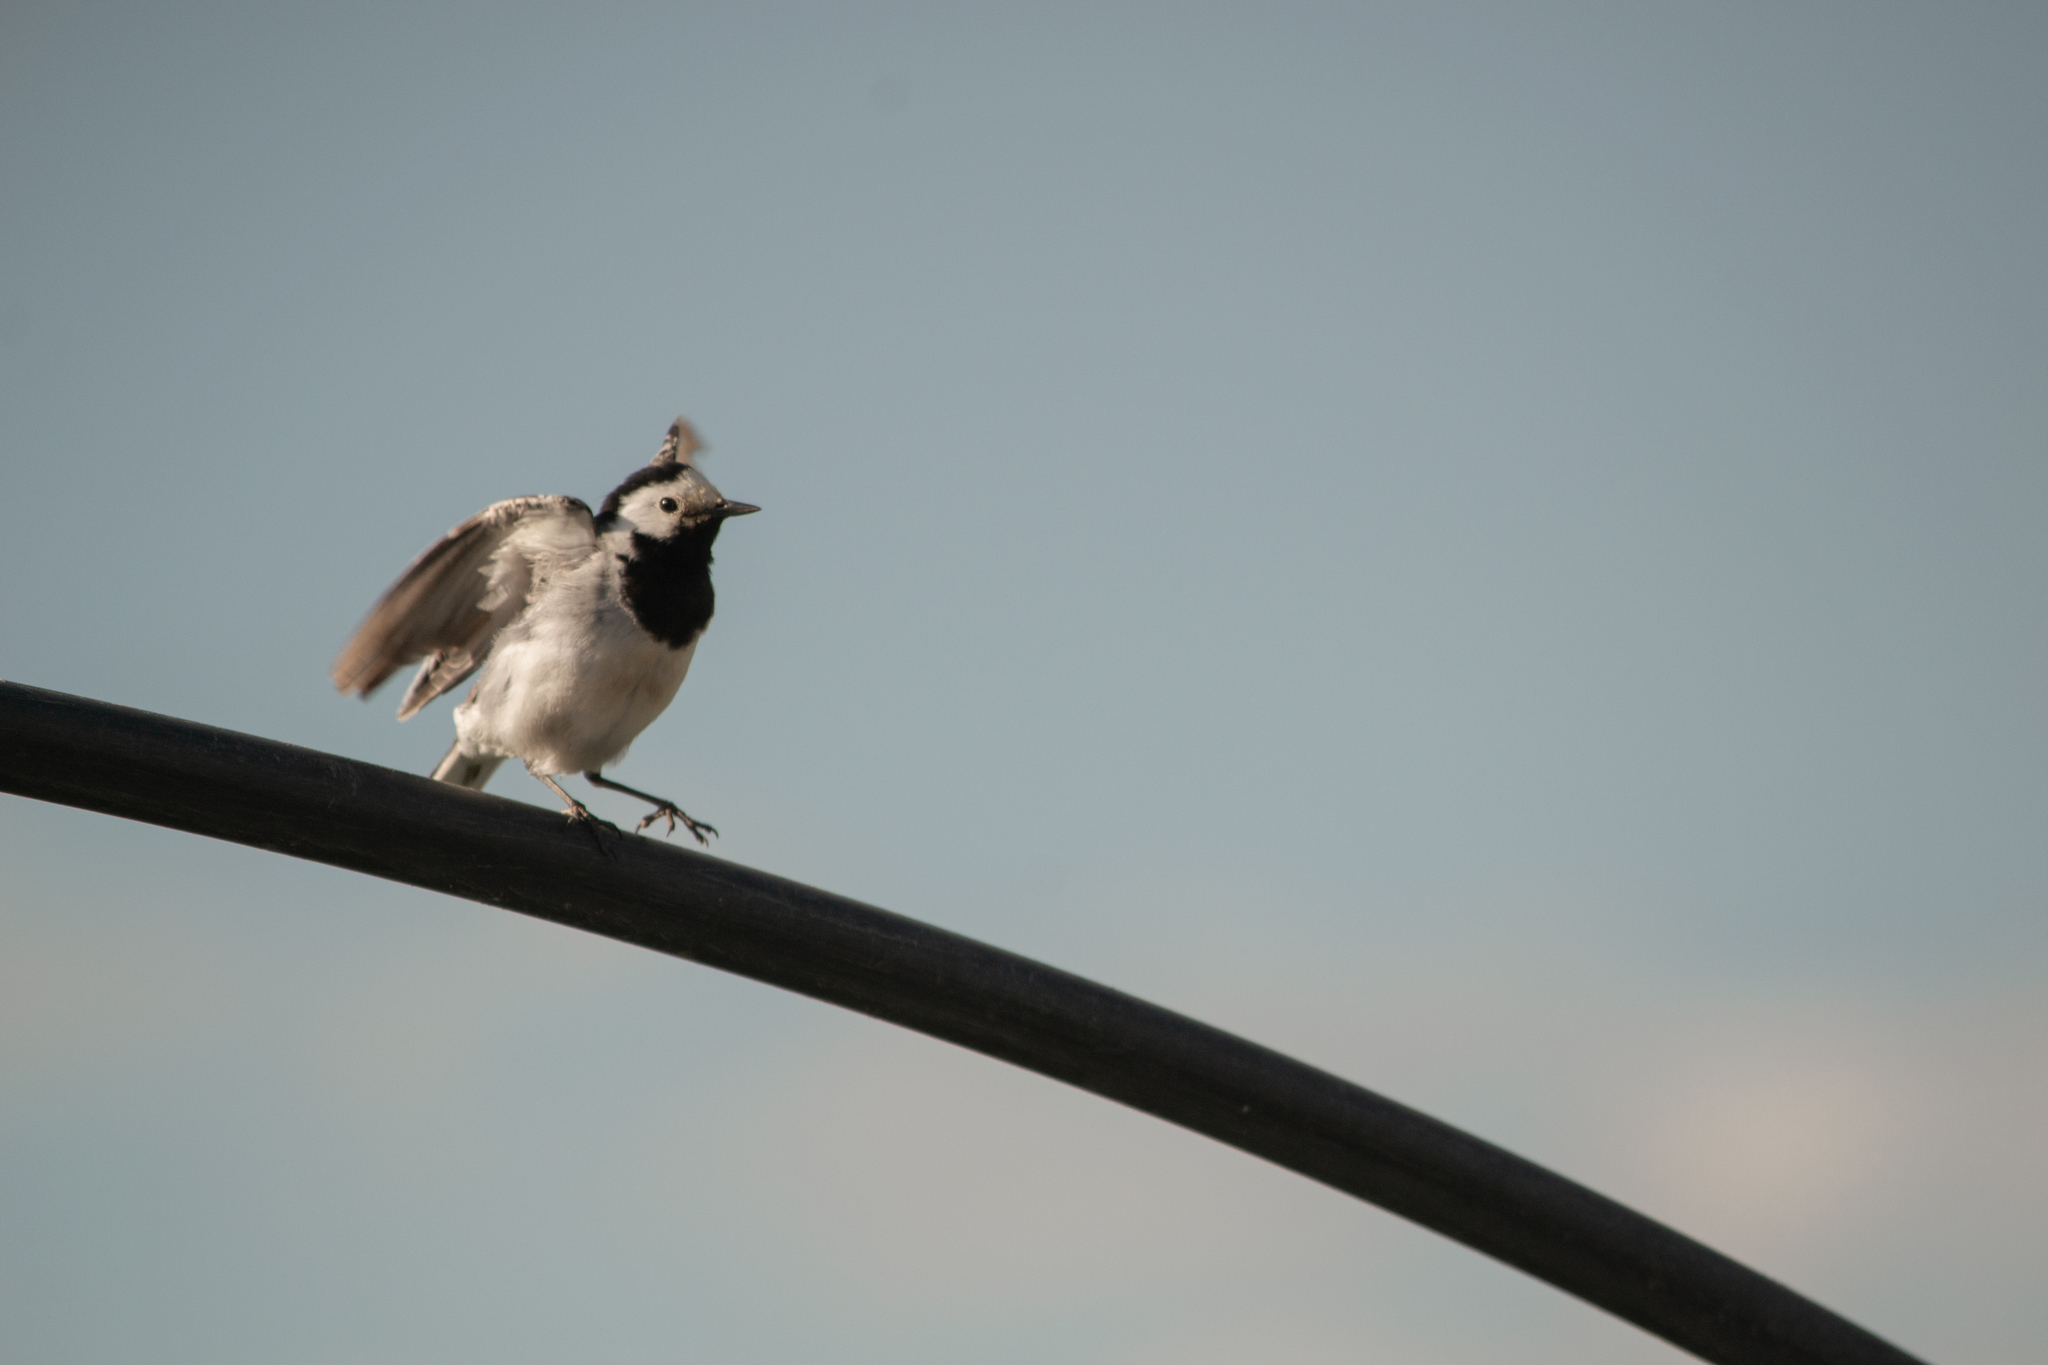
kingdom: Animalia
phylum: Chordata
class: Aves
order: Passeriformes
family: Motacillidae
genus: Motacilla
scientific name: Motacilla alba
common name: White wagtail
